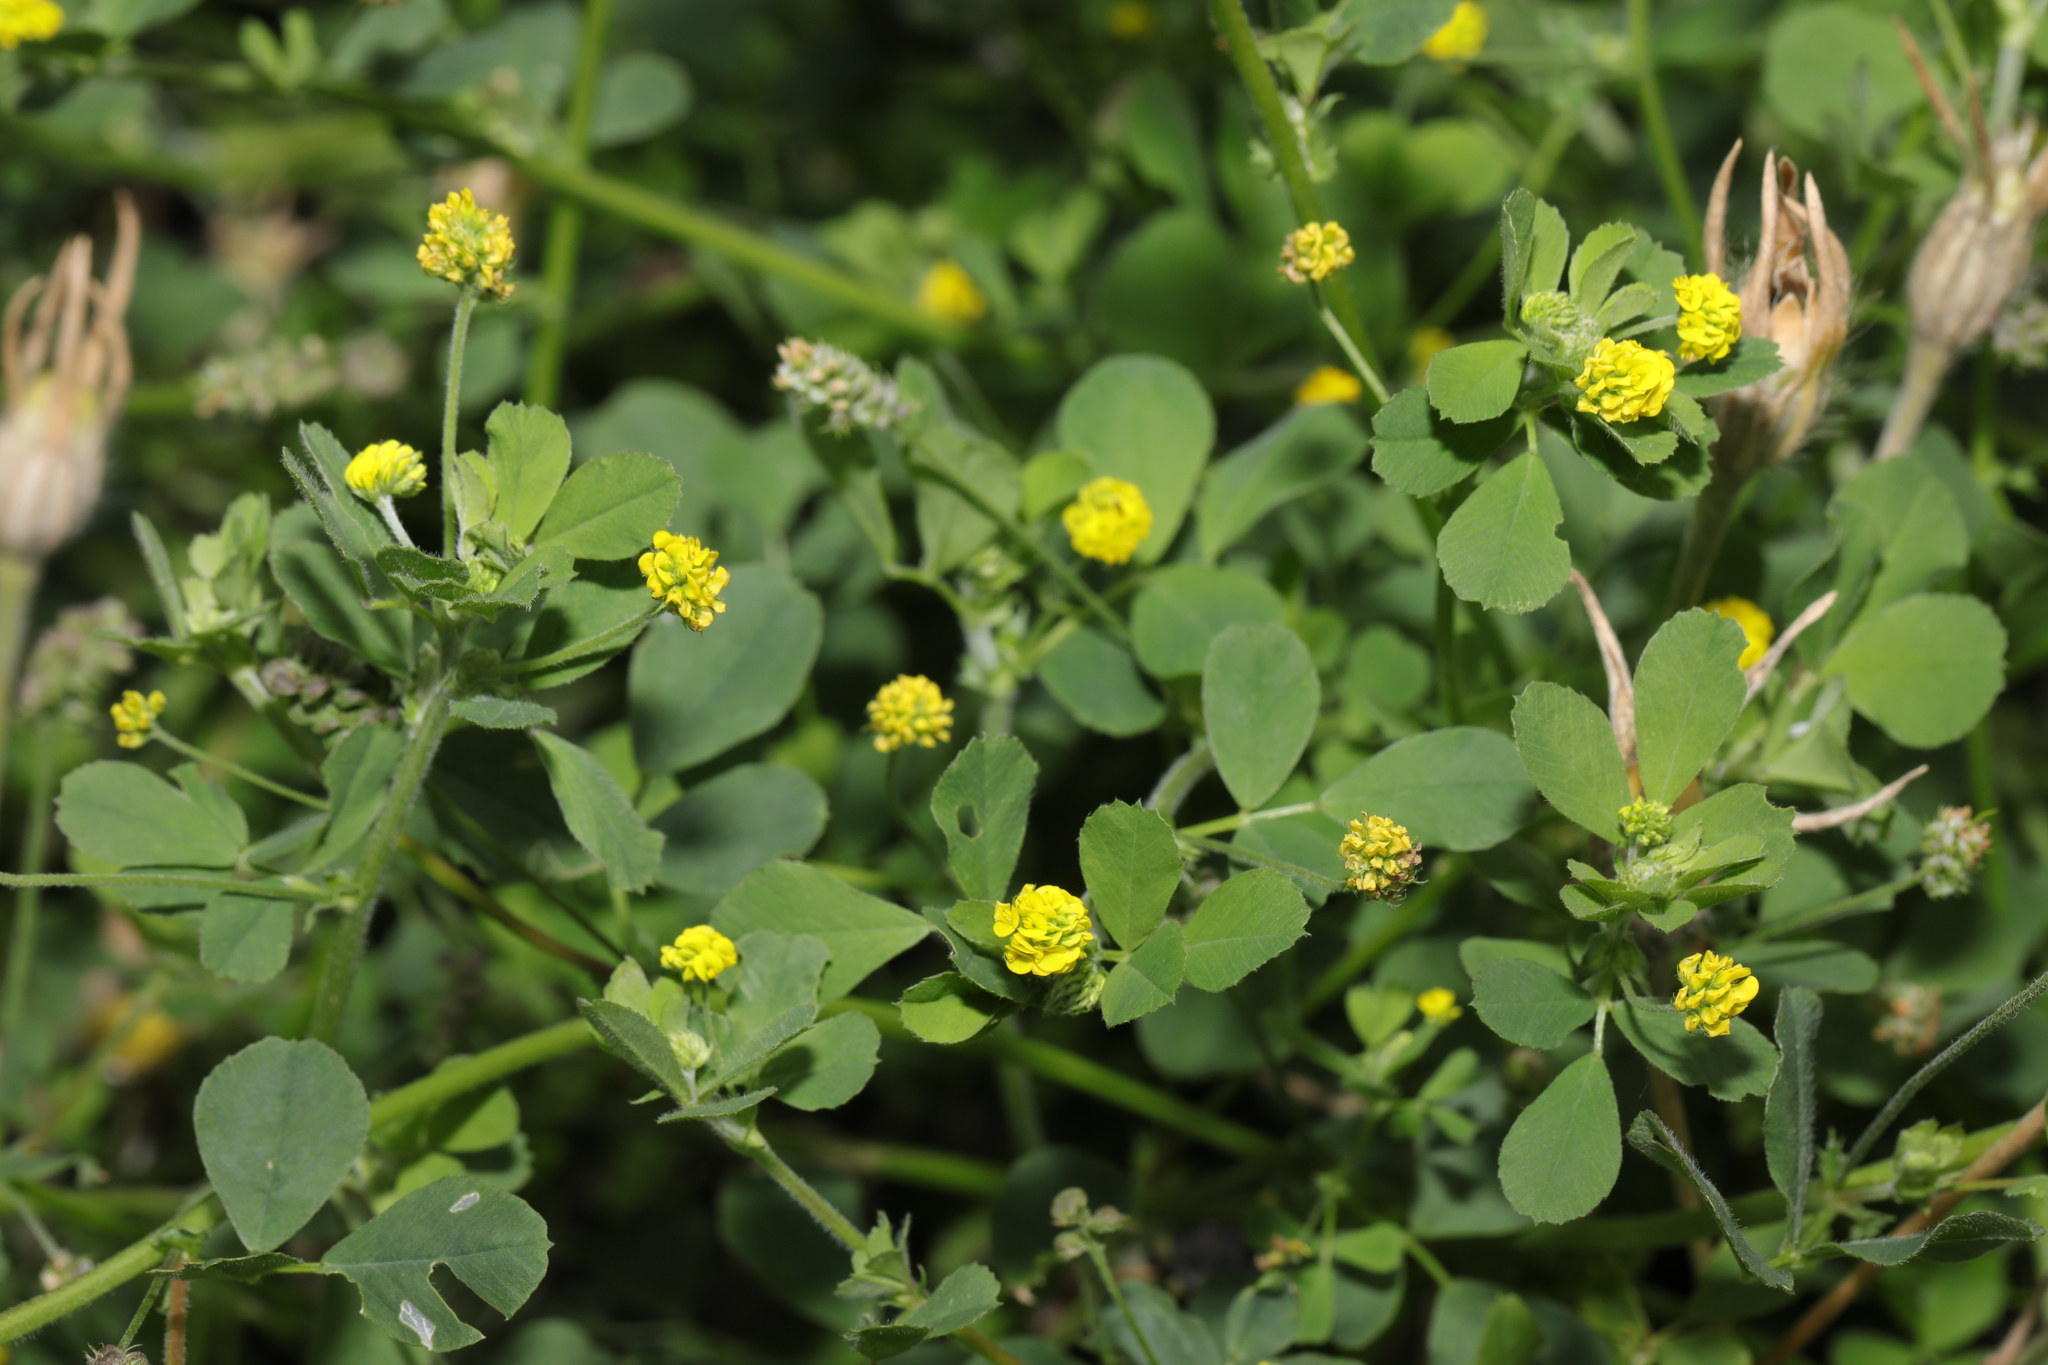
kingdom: Plantae
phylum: Tracheophyta
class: Magnoliopsida
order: Fabales
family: Fabaceae
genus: Medicago
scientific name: Medicago lupulina
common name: Black medick
